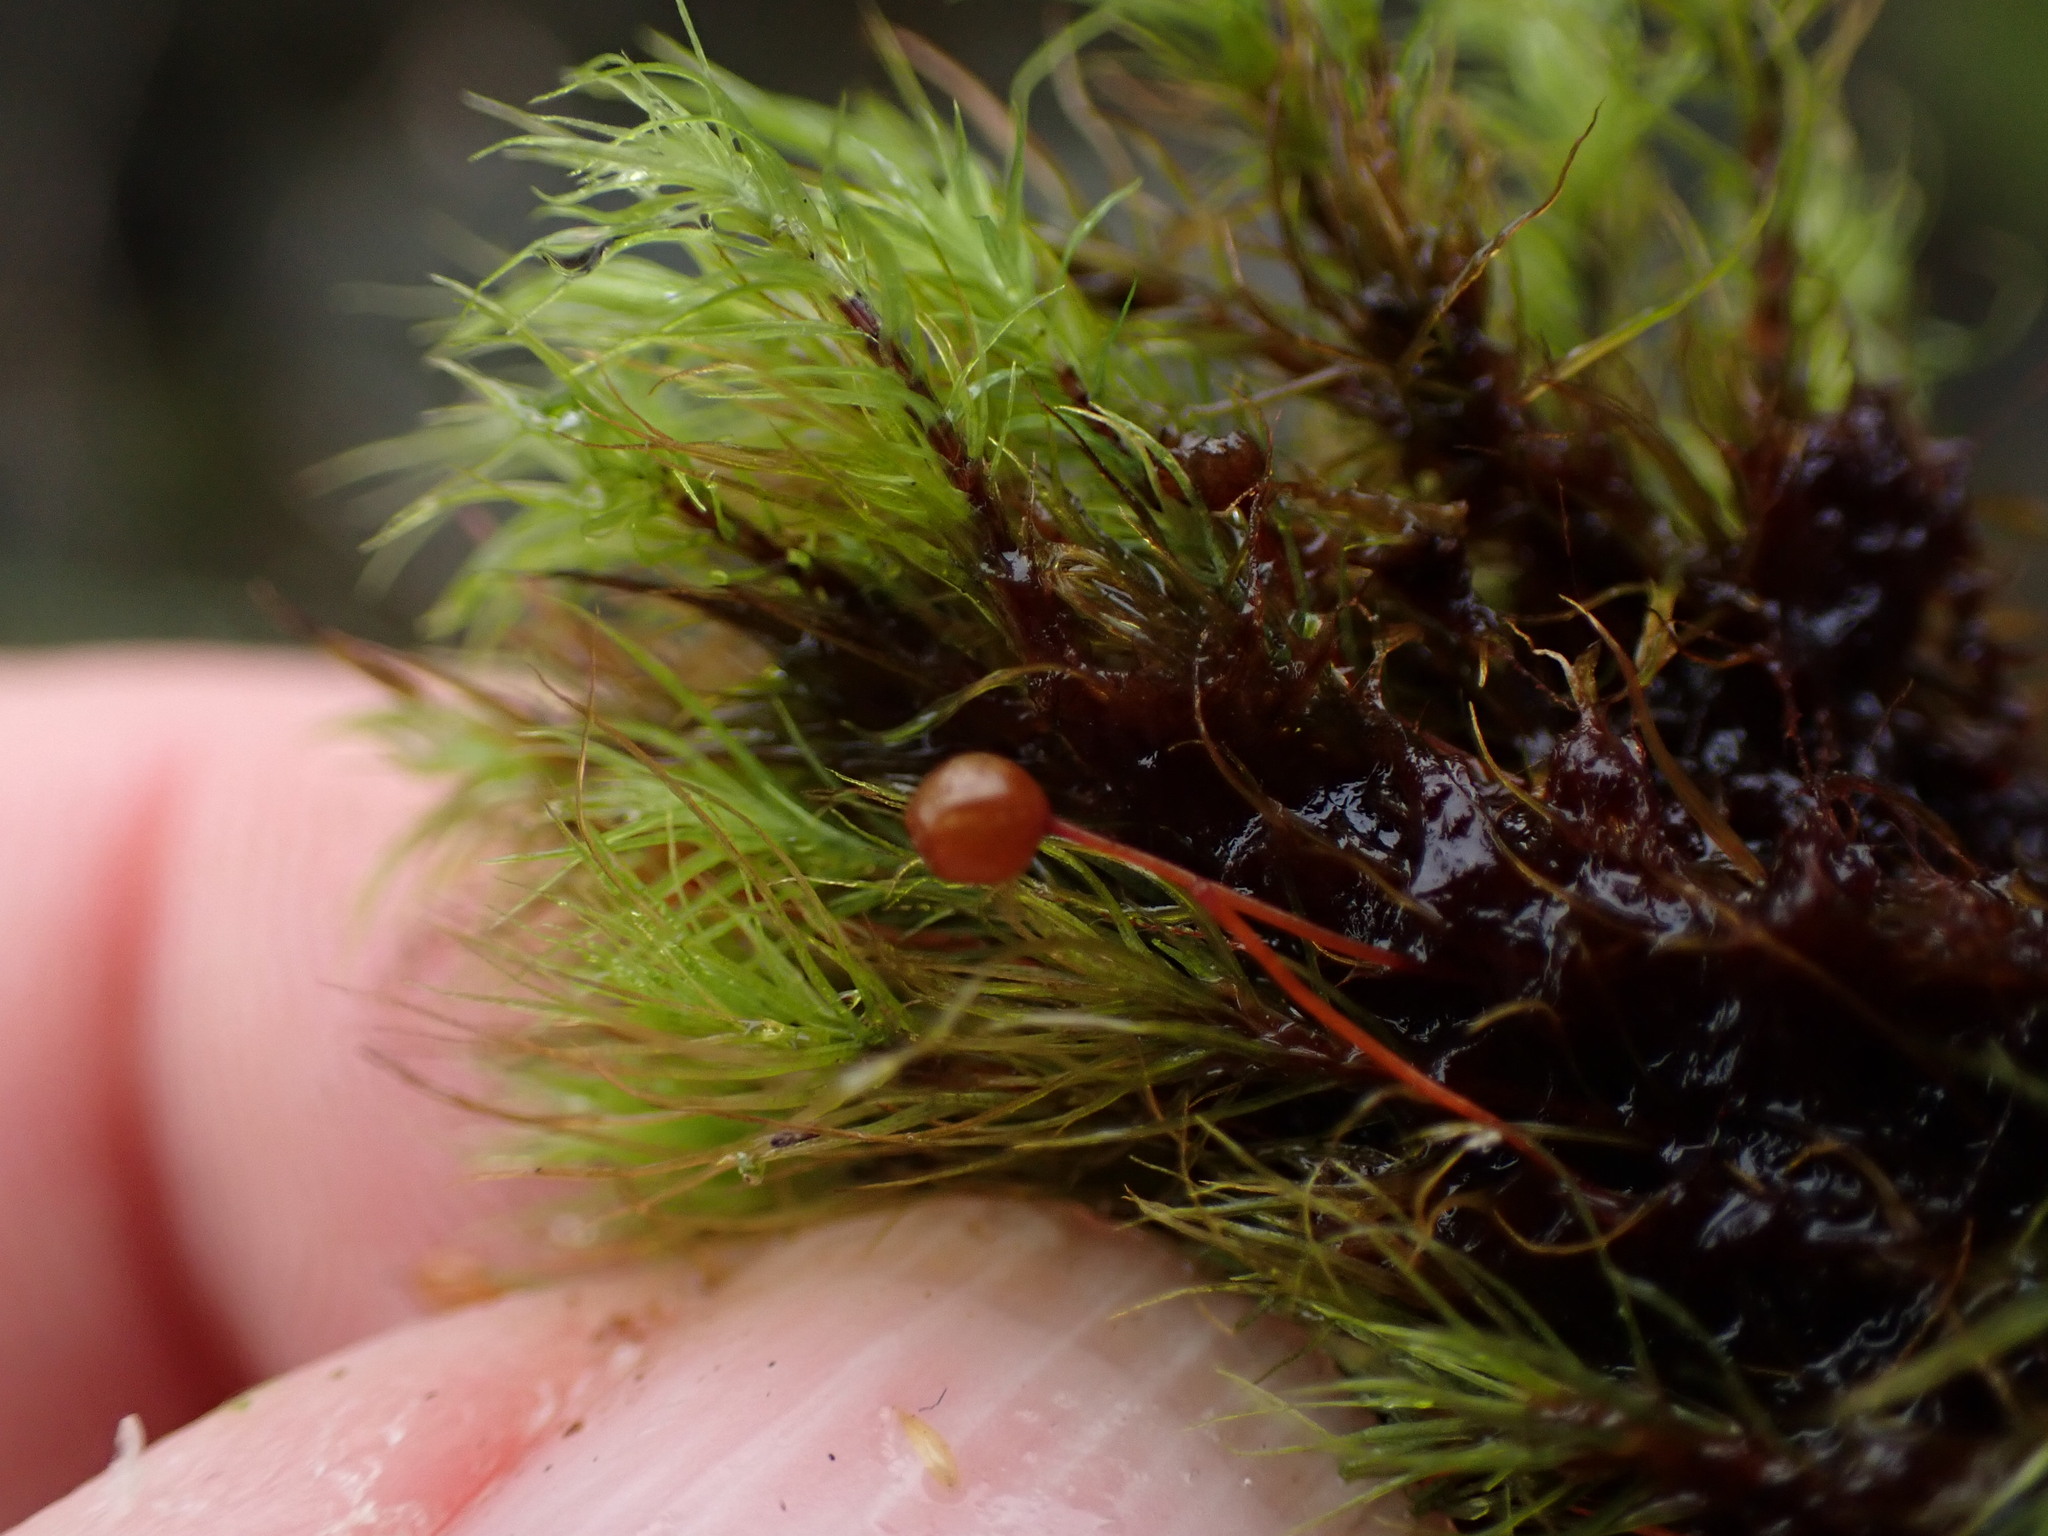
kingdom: Plantae
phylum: Bryophyta
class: Bryopsida
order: Bartramiales
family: Bartramiaceae
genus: Bartramia
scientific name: Bartramia ithyphylla
